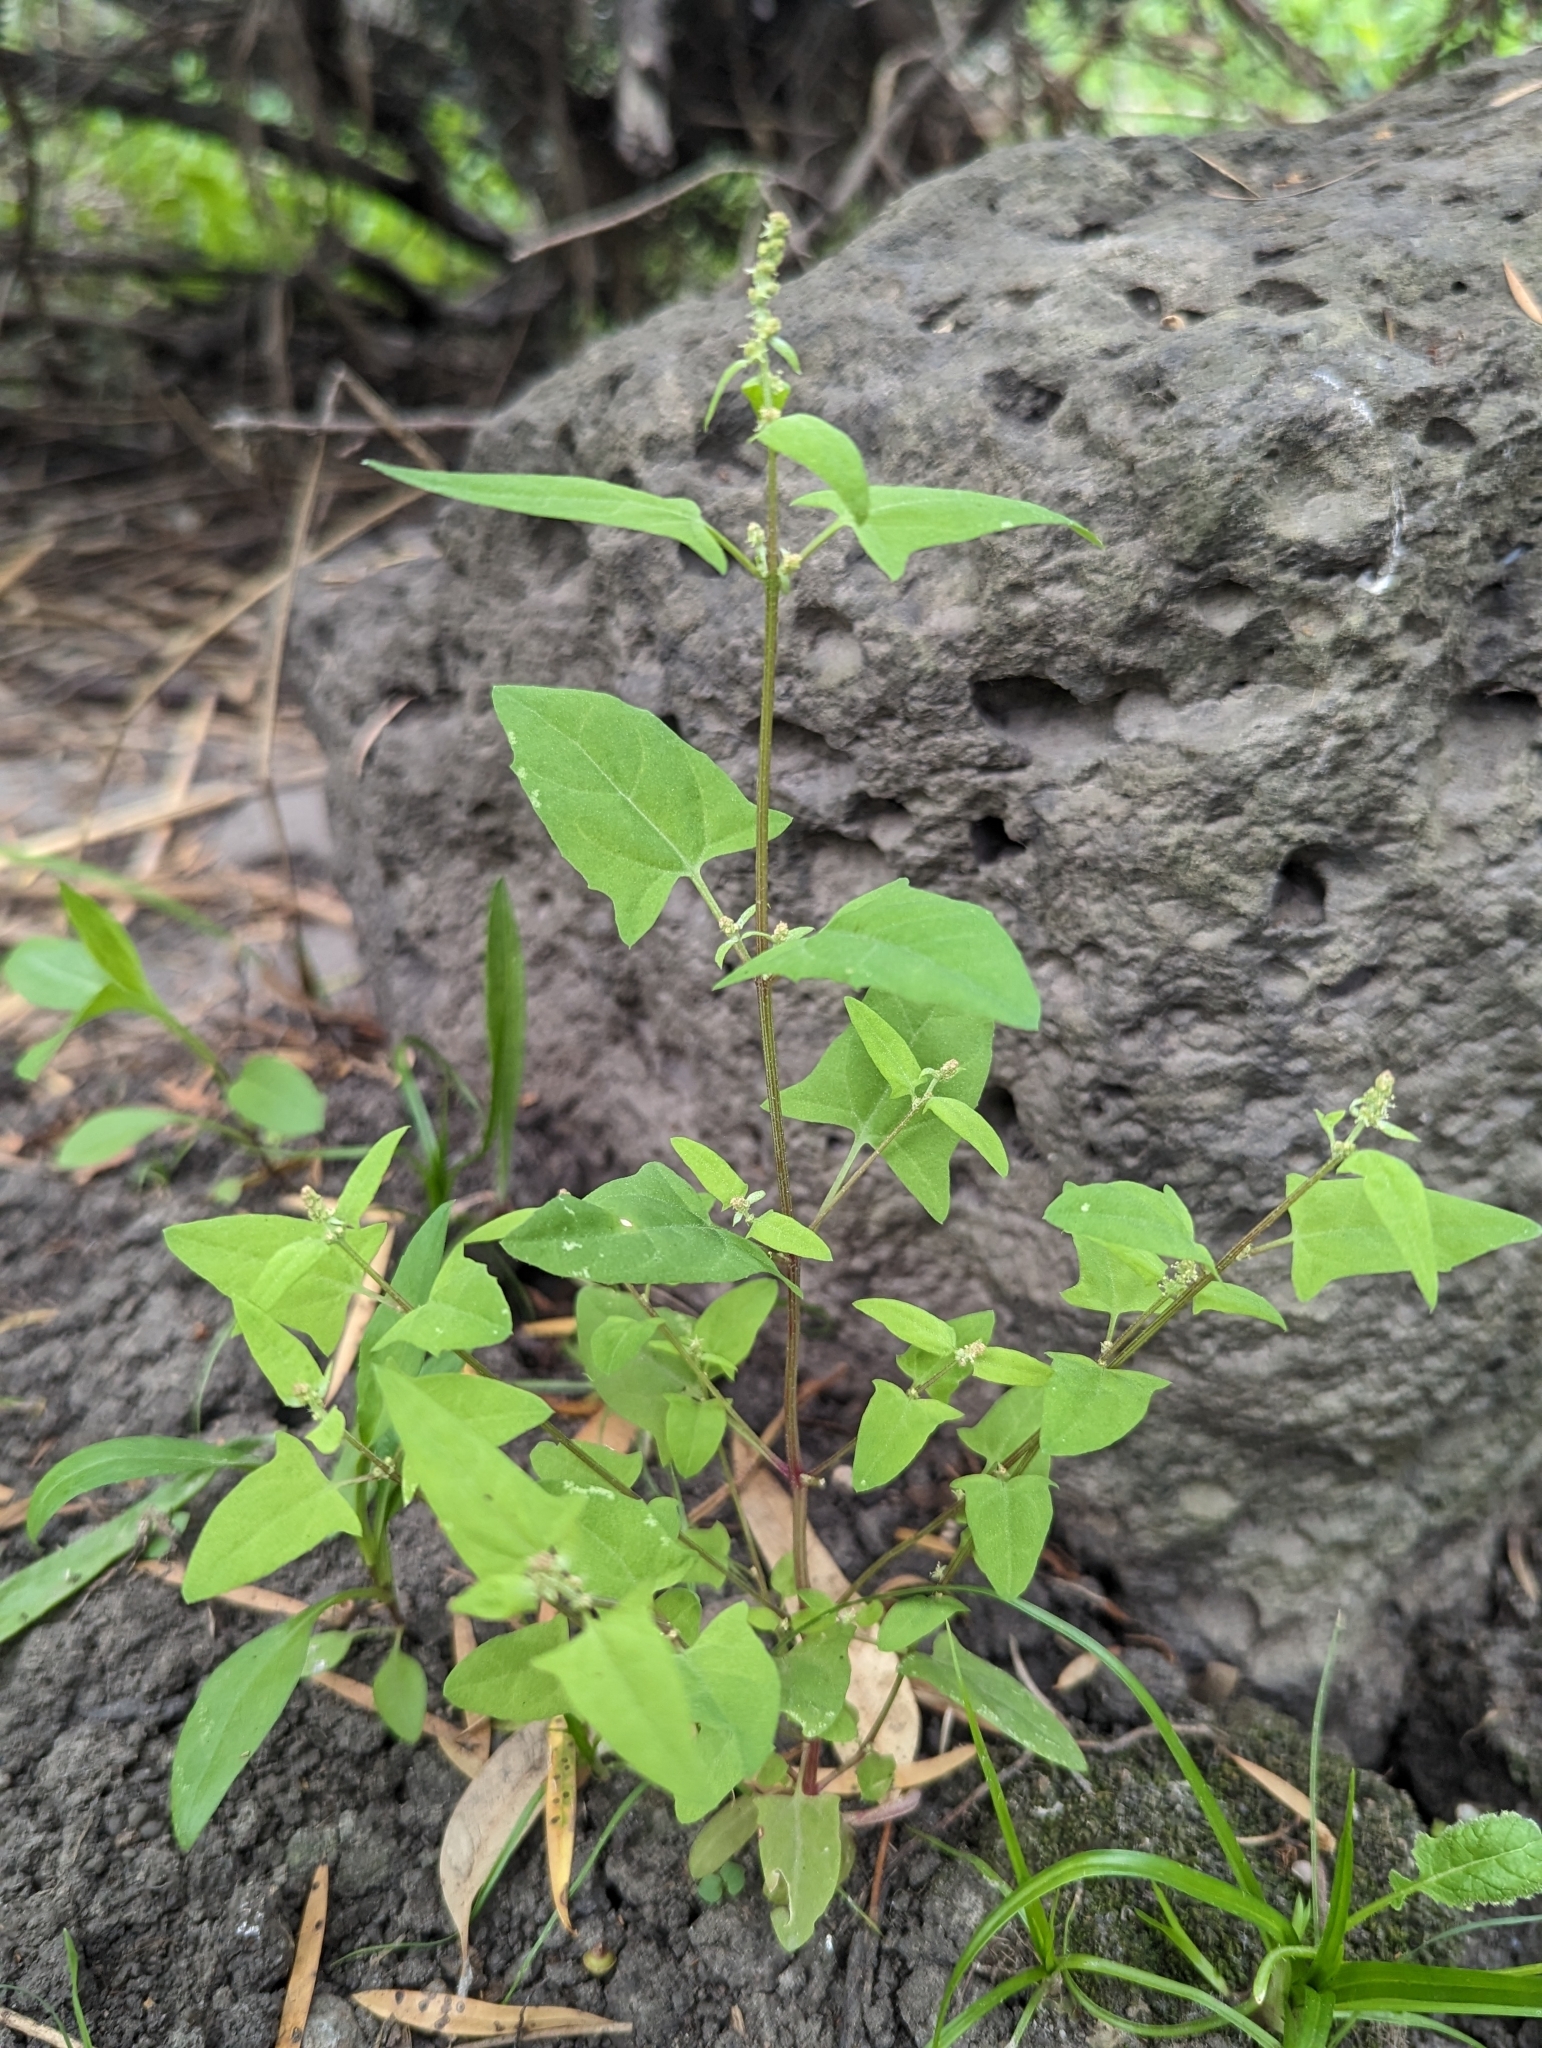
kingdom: Plantae
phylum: Tracheophyta
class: Magnoliopsida
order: Caryophyllales
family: Amaranthaceae
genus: Atriplex
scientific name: Atriplex prostrata
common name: Spear-leaved orache
